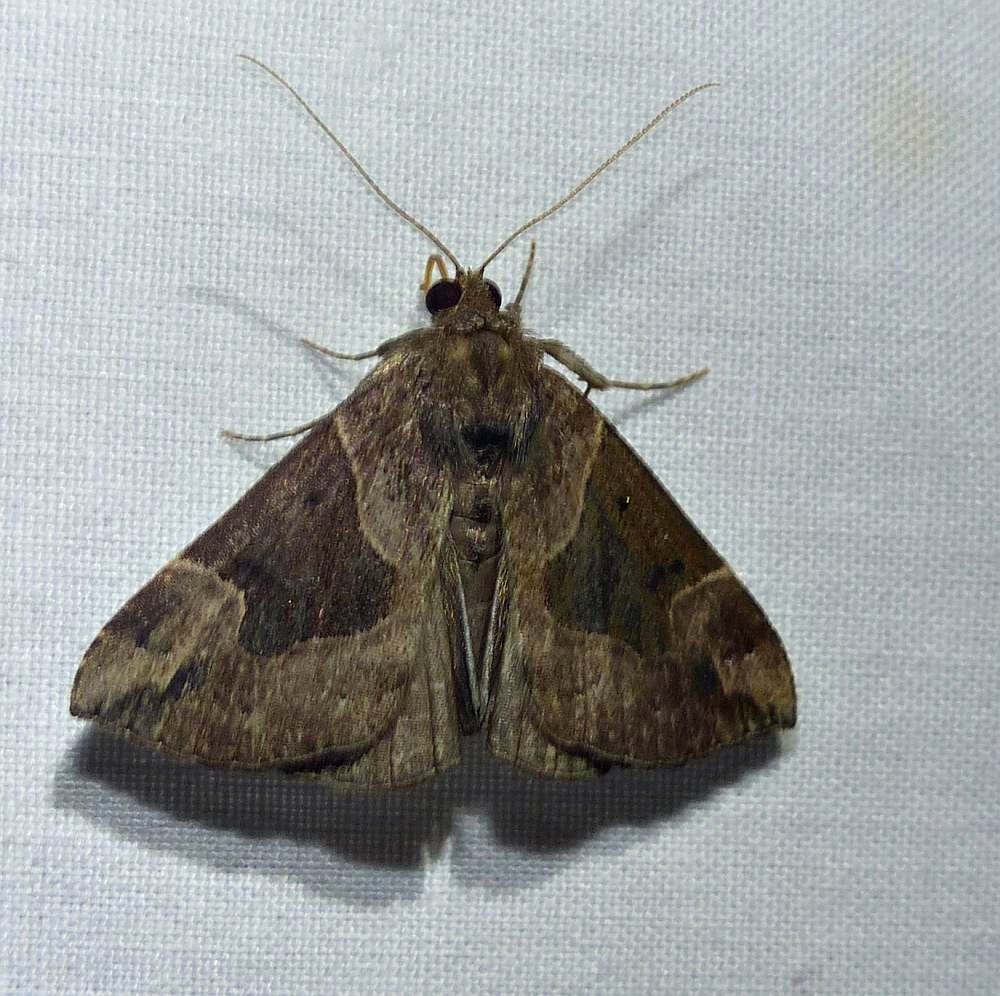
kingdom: Animalia
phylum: Arthropoda
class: Insecta
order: Lepidoptera
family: Erebidae
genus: Hypena
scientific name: Hypena manalis
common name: Flowing-line bomolocha moth
